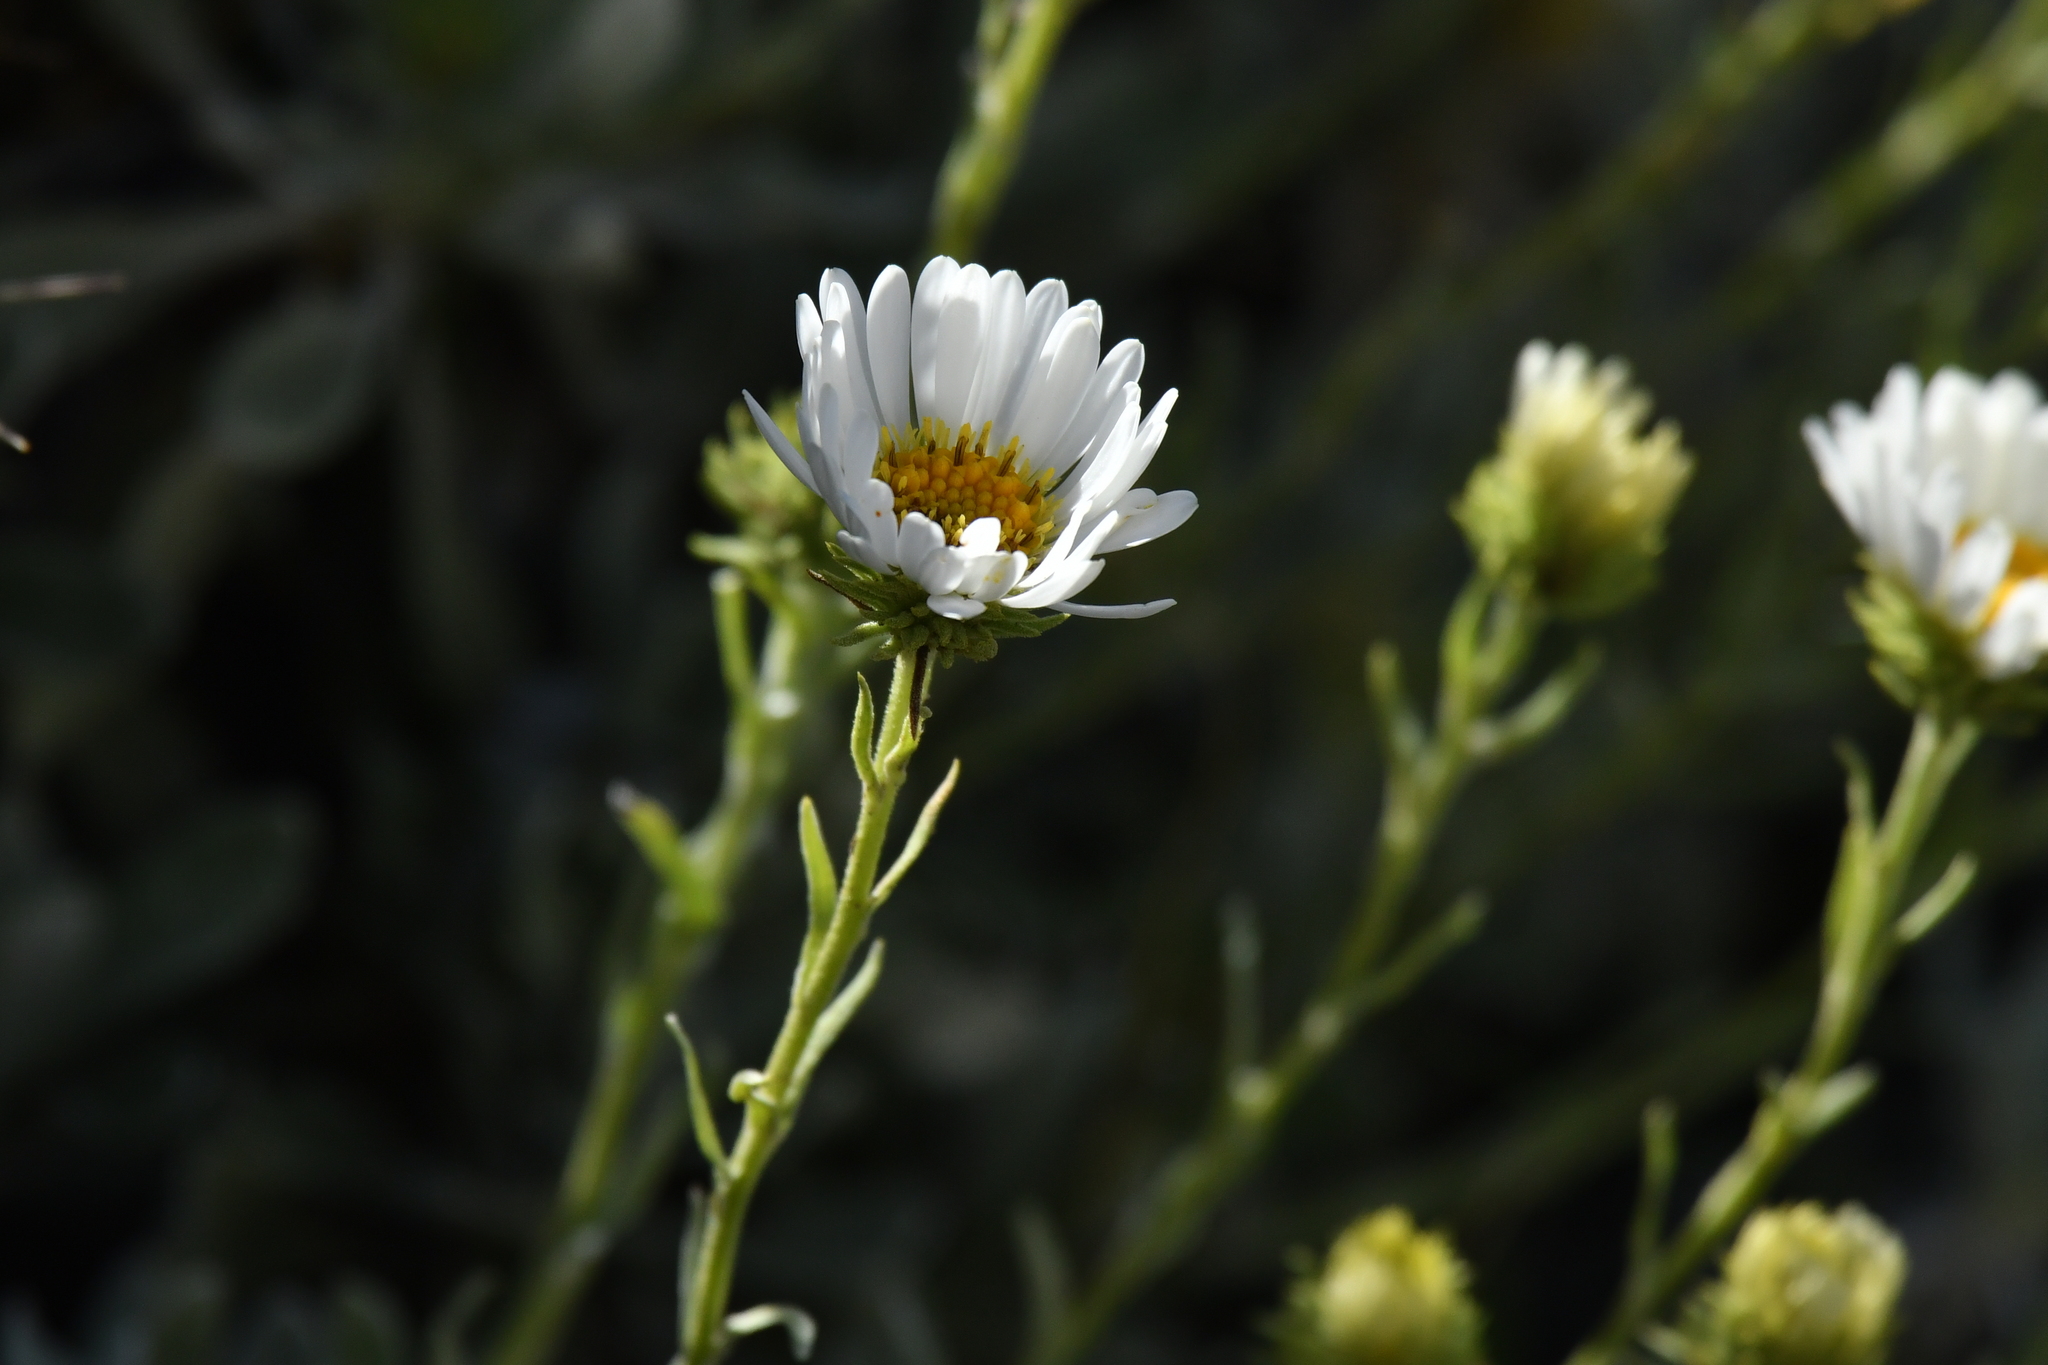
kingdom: Plantae
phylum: Tracheophyta
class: Magnoliopsida
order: Asterales
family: Asteraceae
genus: Celmisia
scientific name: Celmisia discolor
